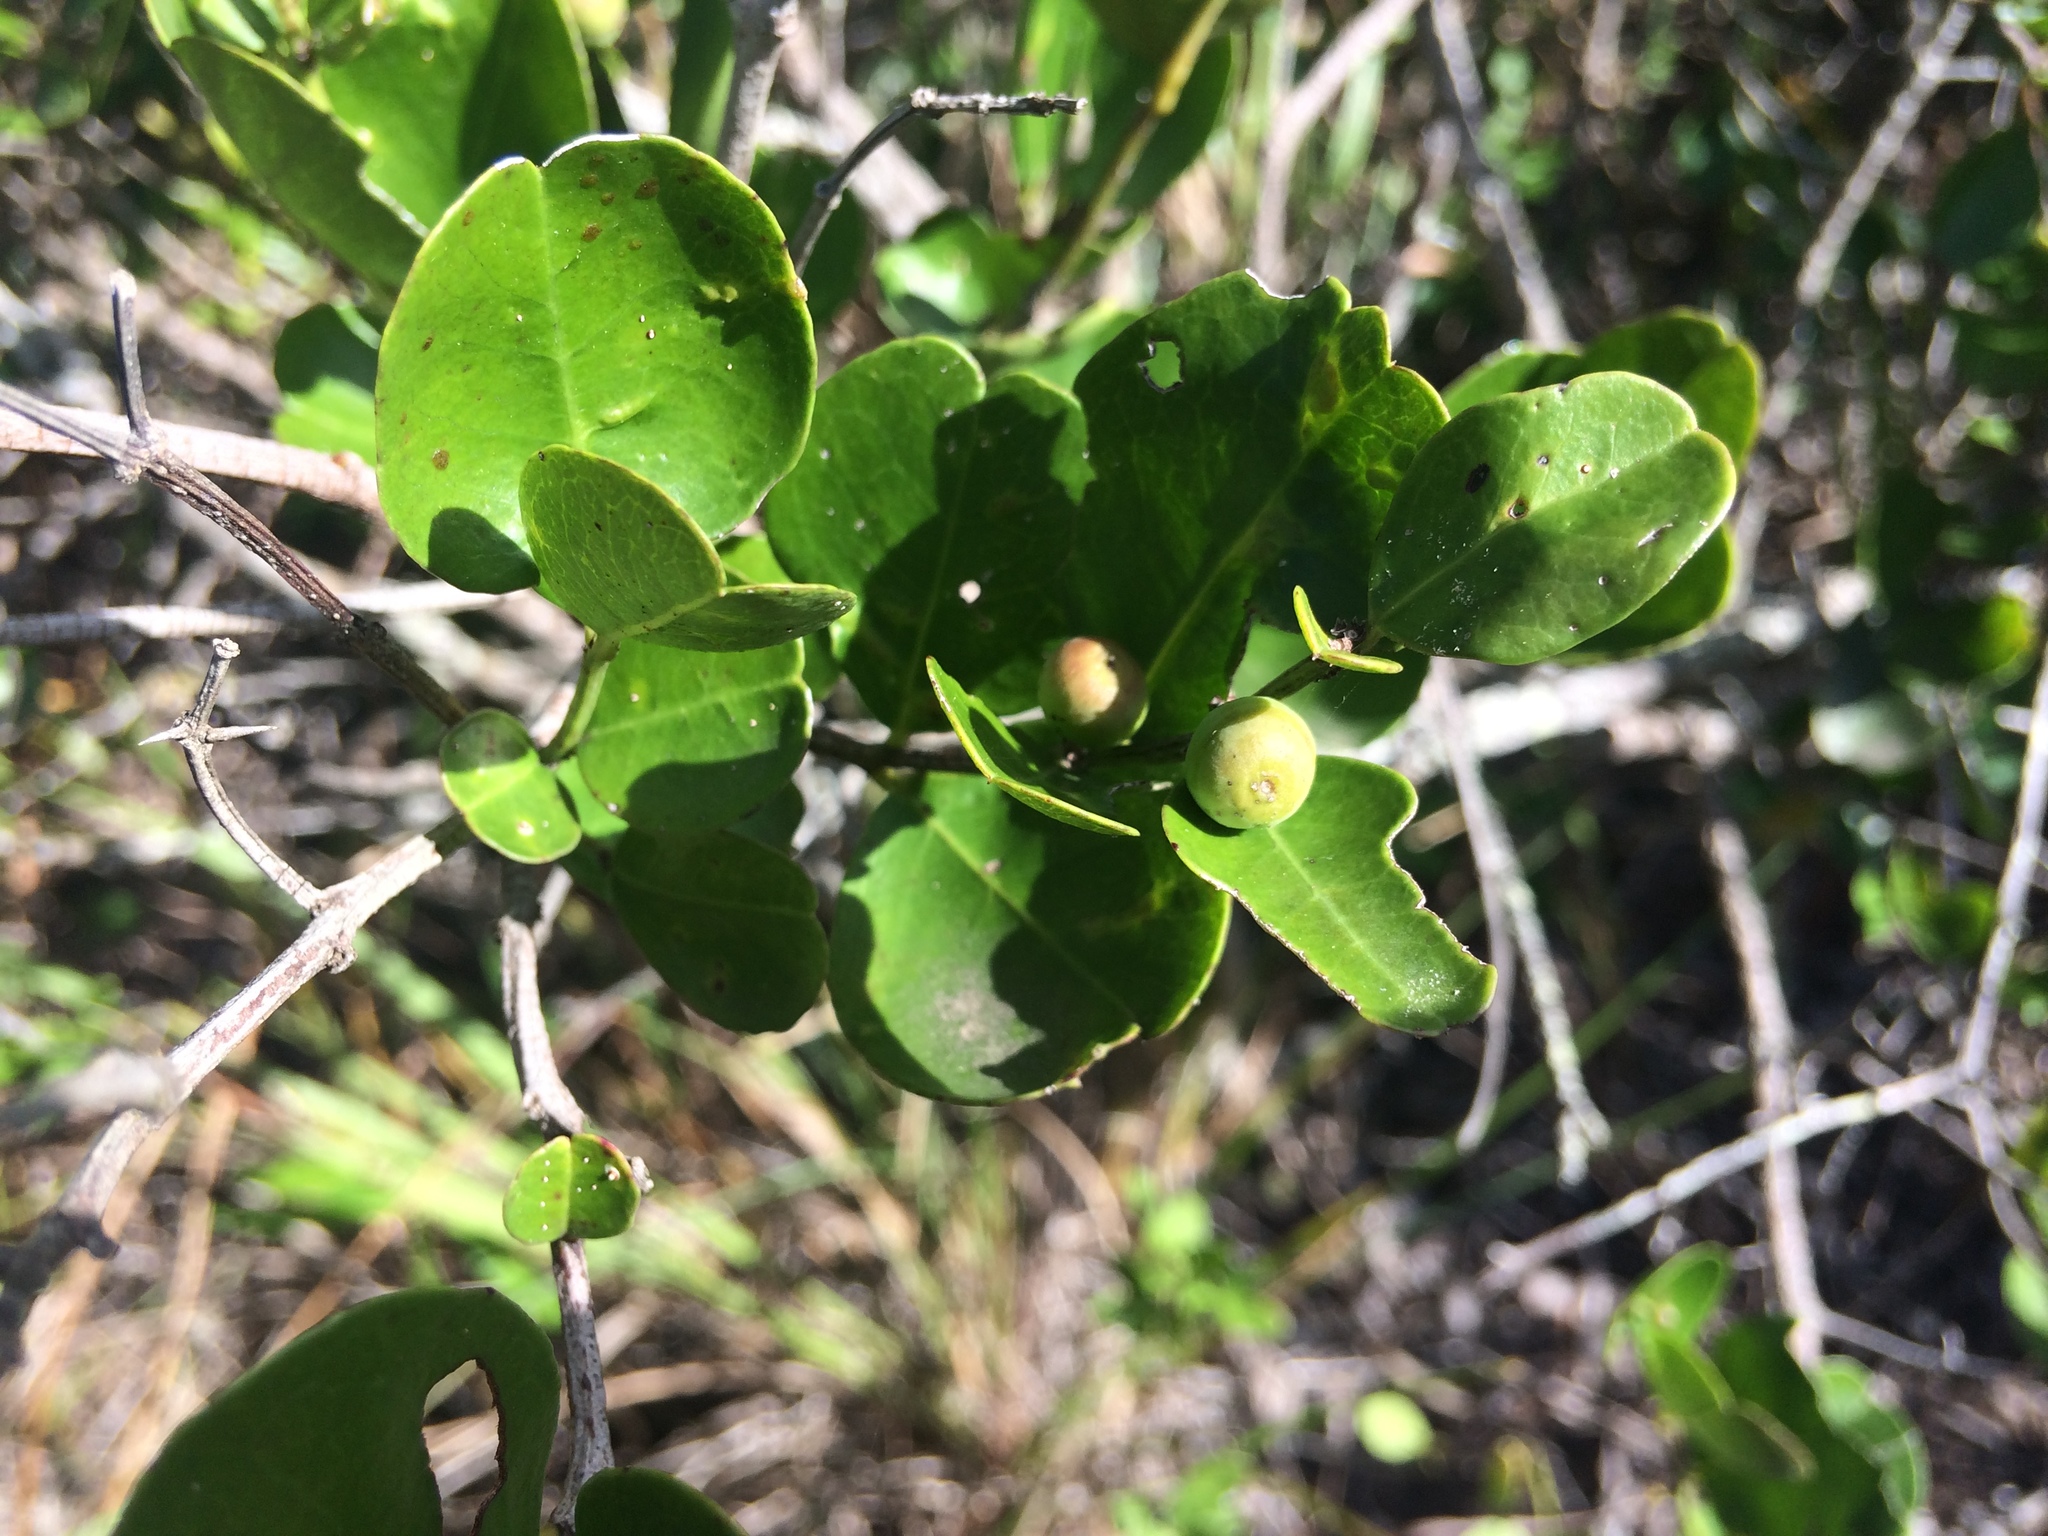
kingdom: Plantae
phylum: Tracheophyta
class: Magnoliopsida
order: Rosales
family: Rhamnaceae
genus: Scutia
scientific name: Scutia myrtina
